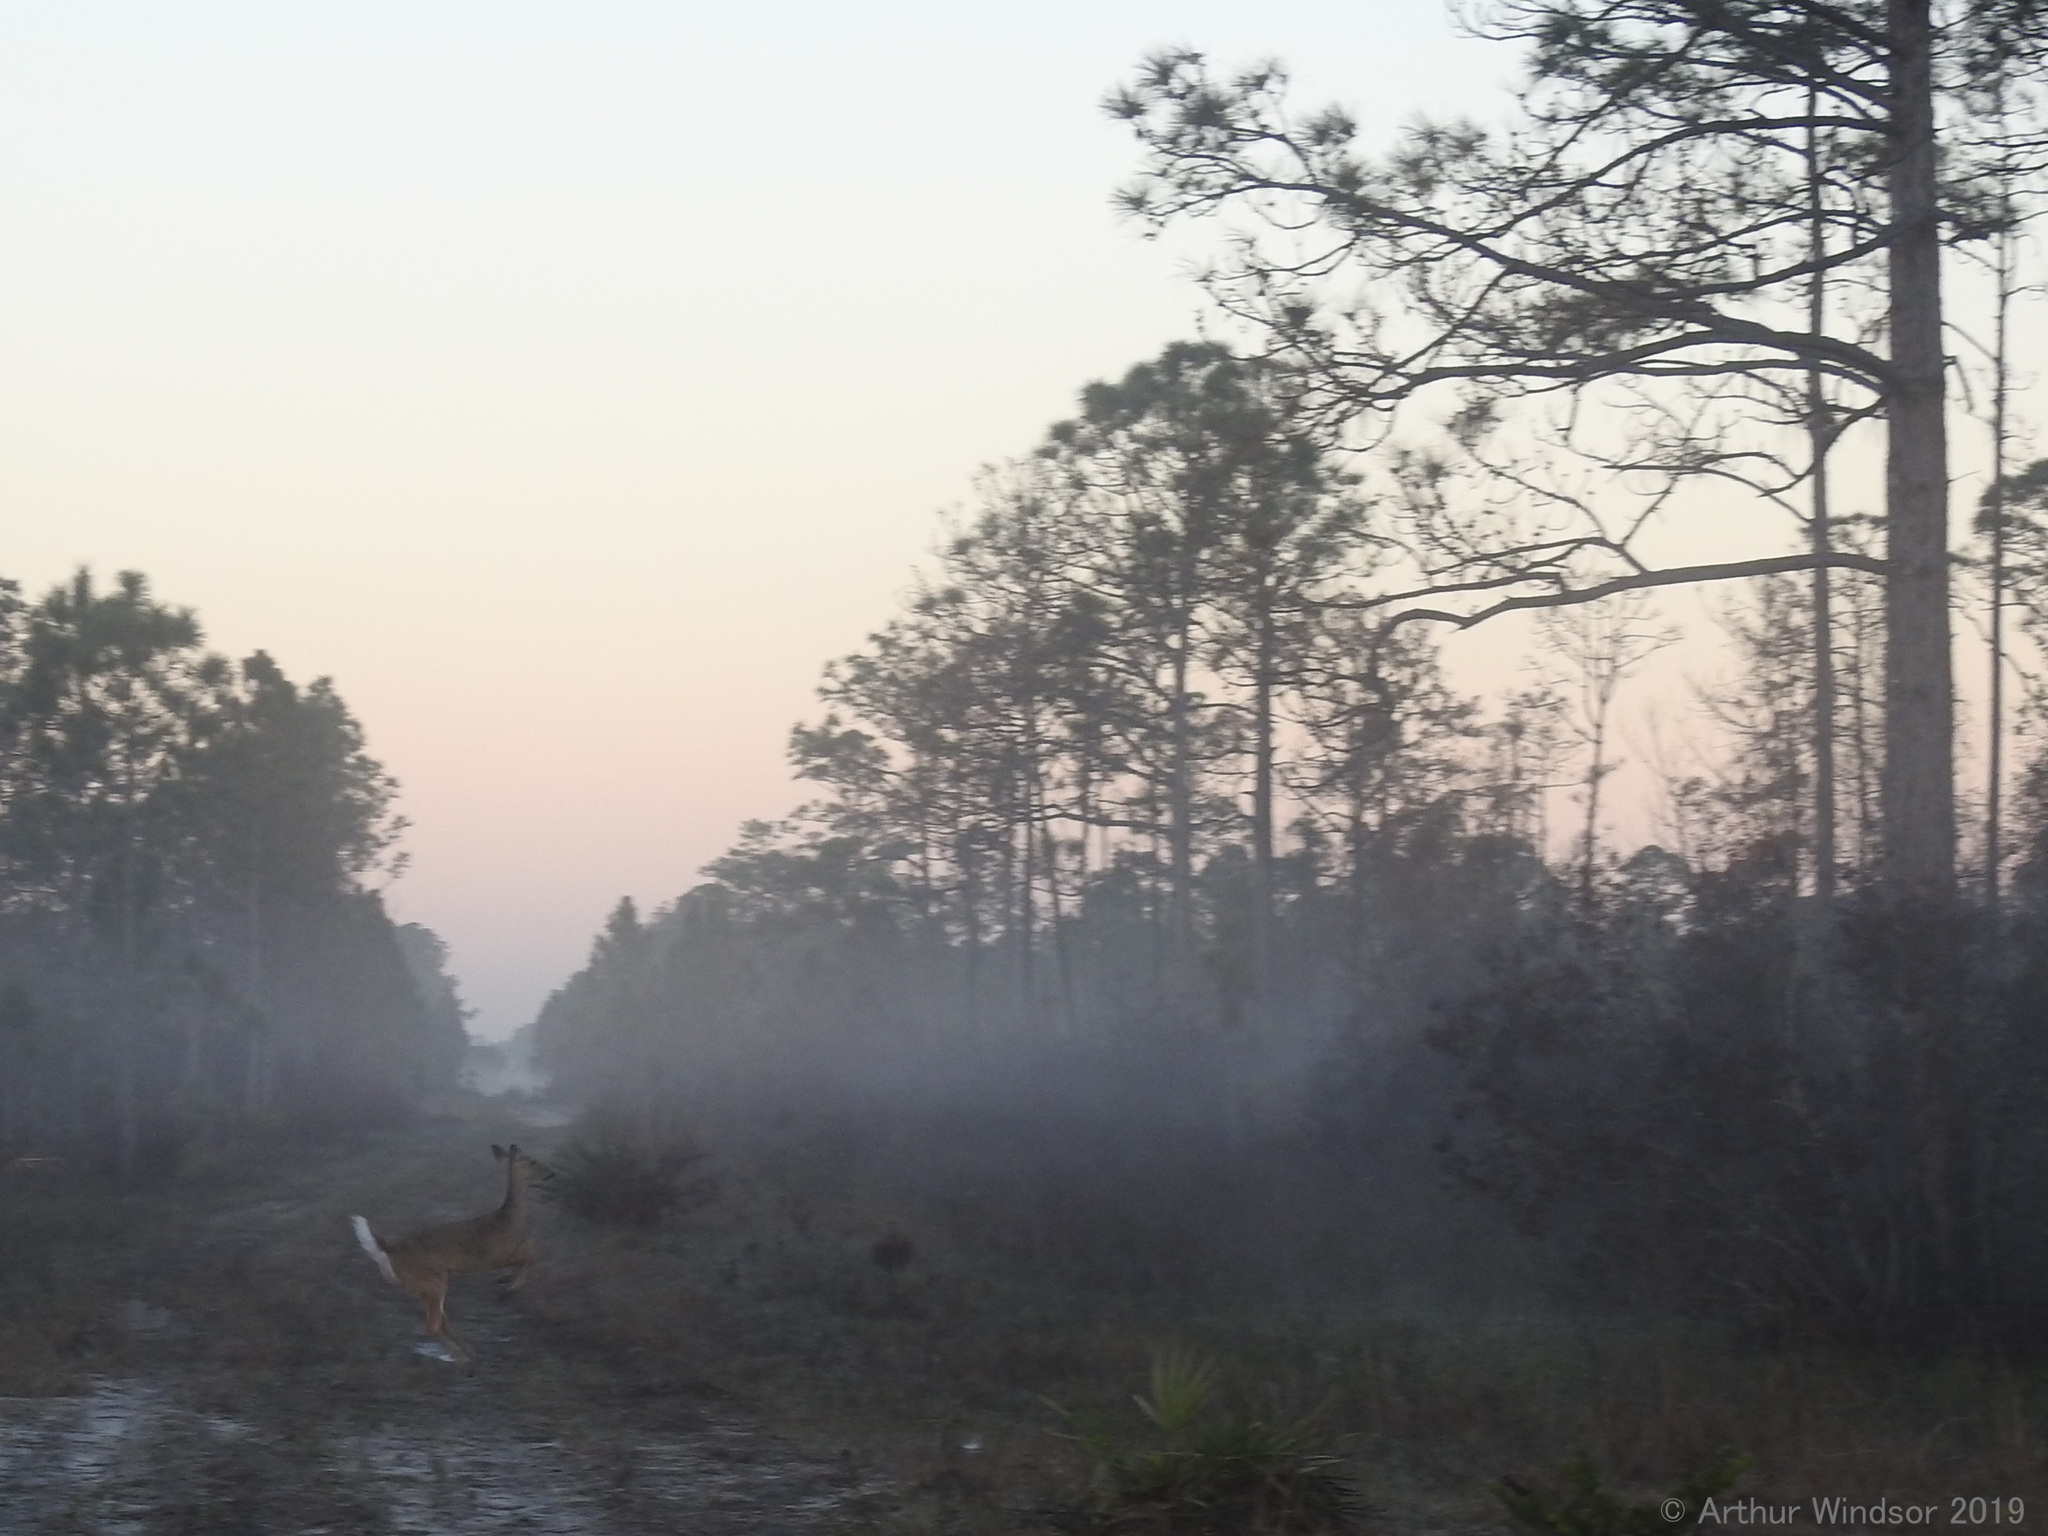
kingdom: Animalia
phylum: Chordata
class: Mammalia
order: Artiodactyla
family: Cervidae
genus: Odocoileus
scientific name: Odocoileus virginianus
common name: White-tailed deer
